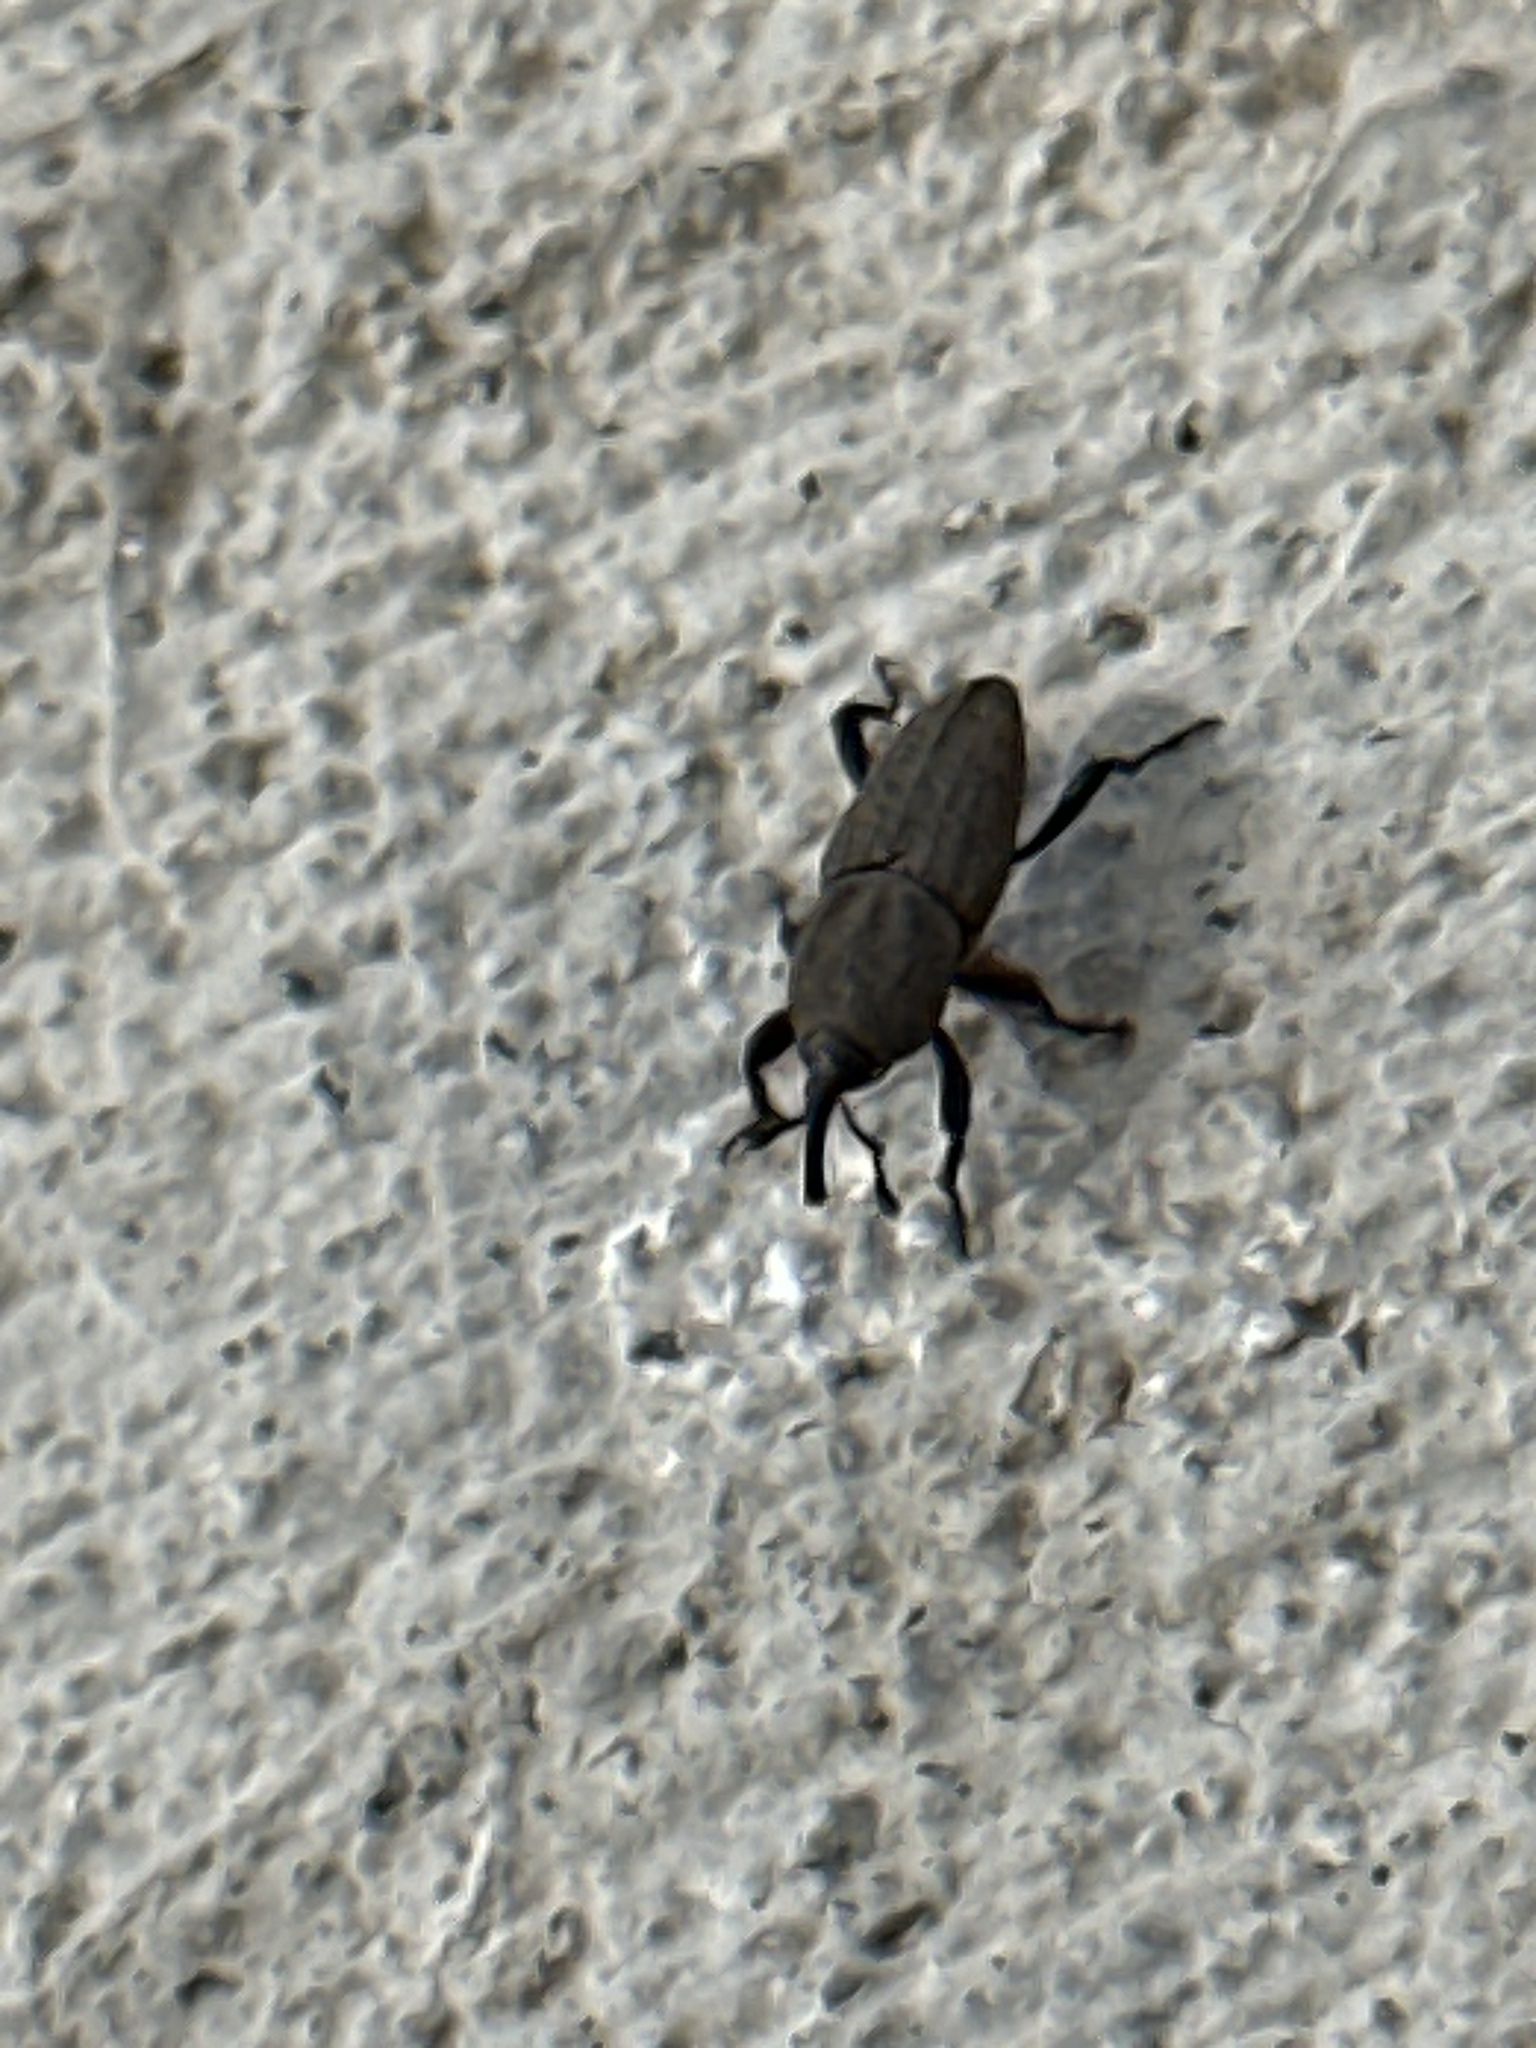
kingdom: Animalia
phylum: Arthropoda
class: Insecta
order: Coleoptera
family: Dryophthoridae
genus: Sphenophorus
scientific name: Sphenophorus interstitialis
